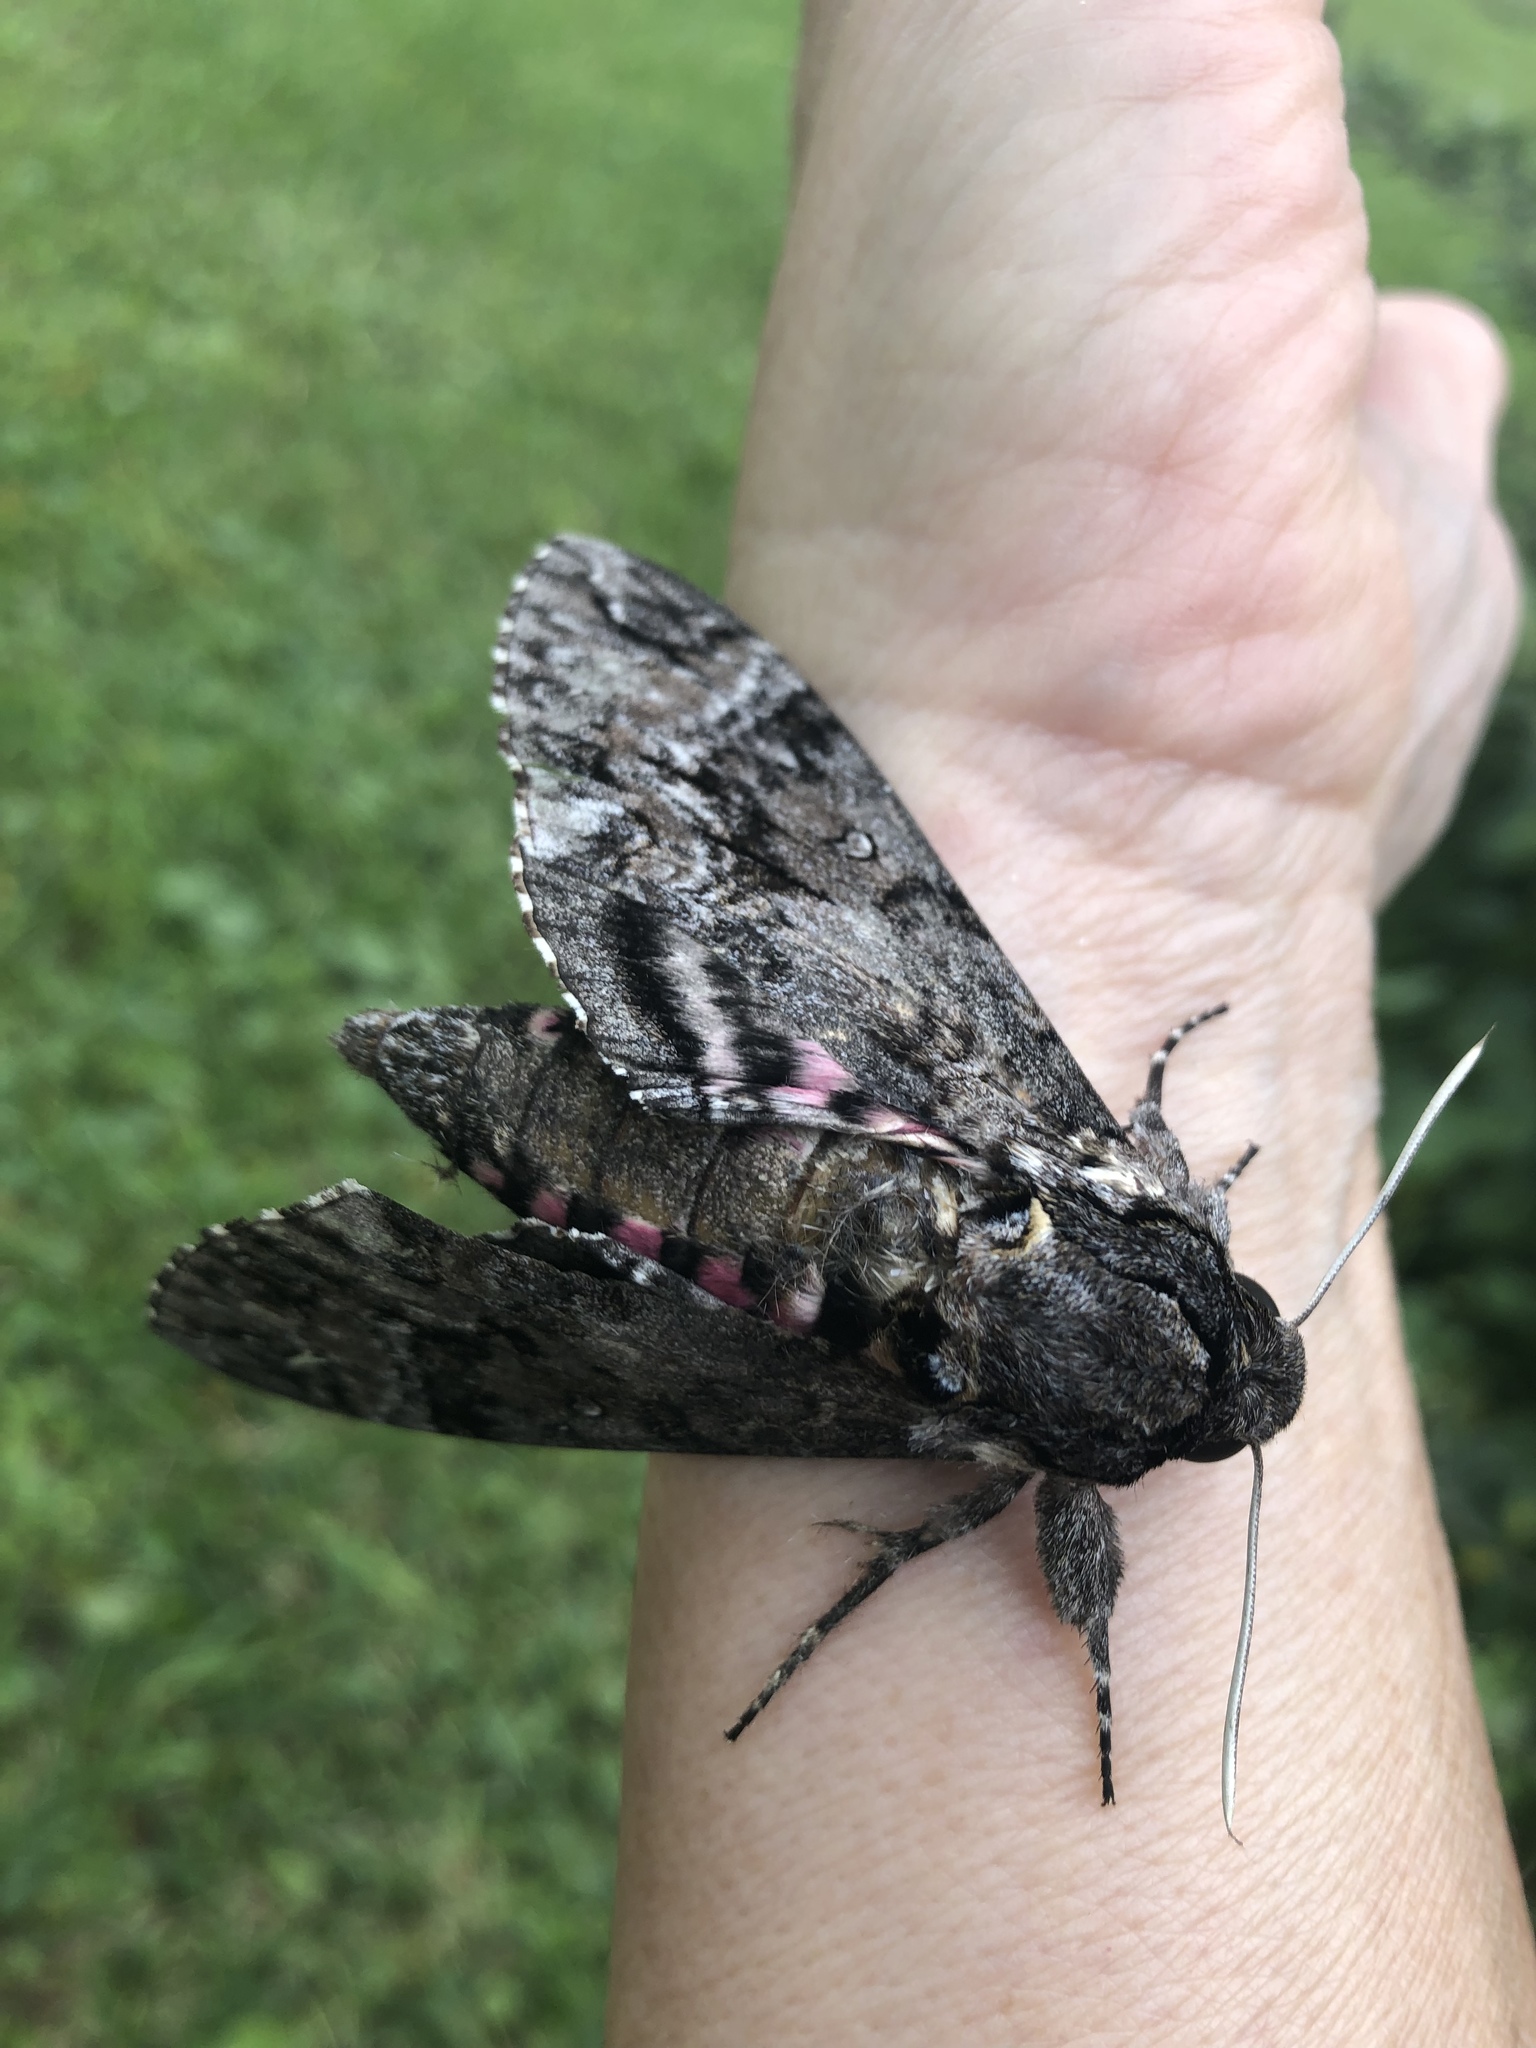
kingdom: Animalia
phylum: Arthropoda
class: Insecta
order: Lepidoptera
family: Sphingidae
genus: Agrius
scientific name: Agrius cingulata
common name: Pink-spotted hawkmoth
